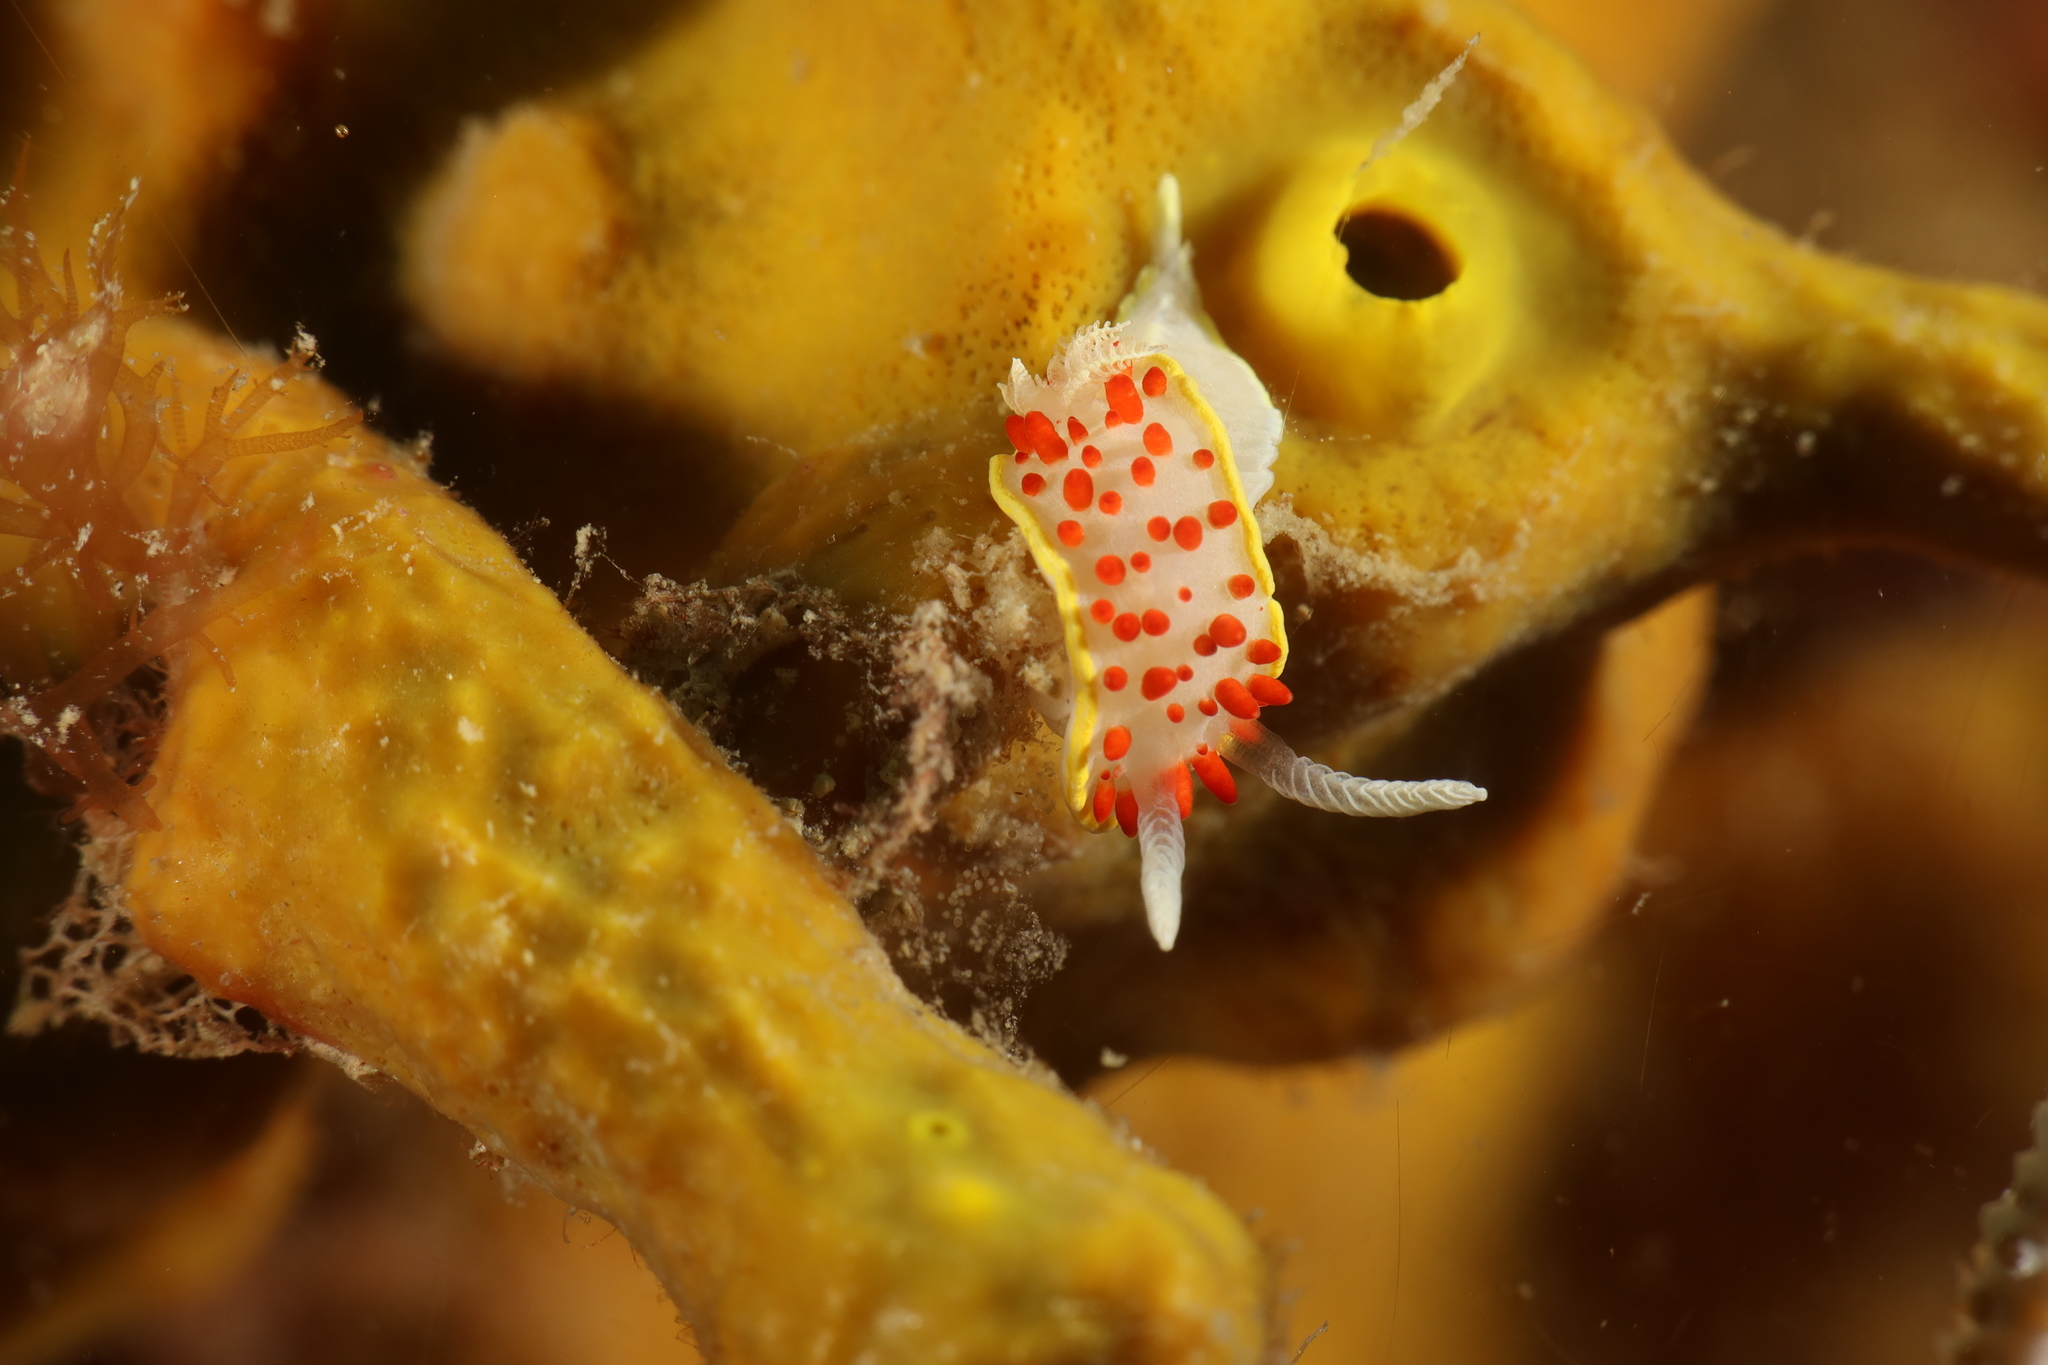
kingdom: Animalia
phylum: Mollusca
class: Gastropoda
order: Nudibranchia
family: Calycidorididae
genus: Diaphorodoris
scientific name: Diaphorodoris papillata
